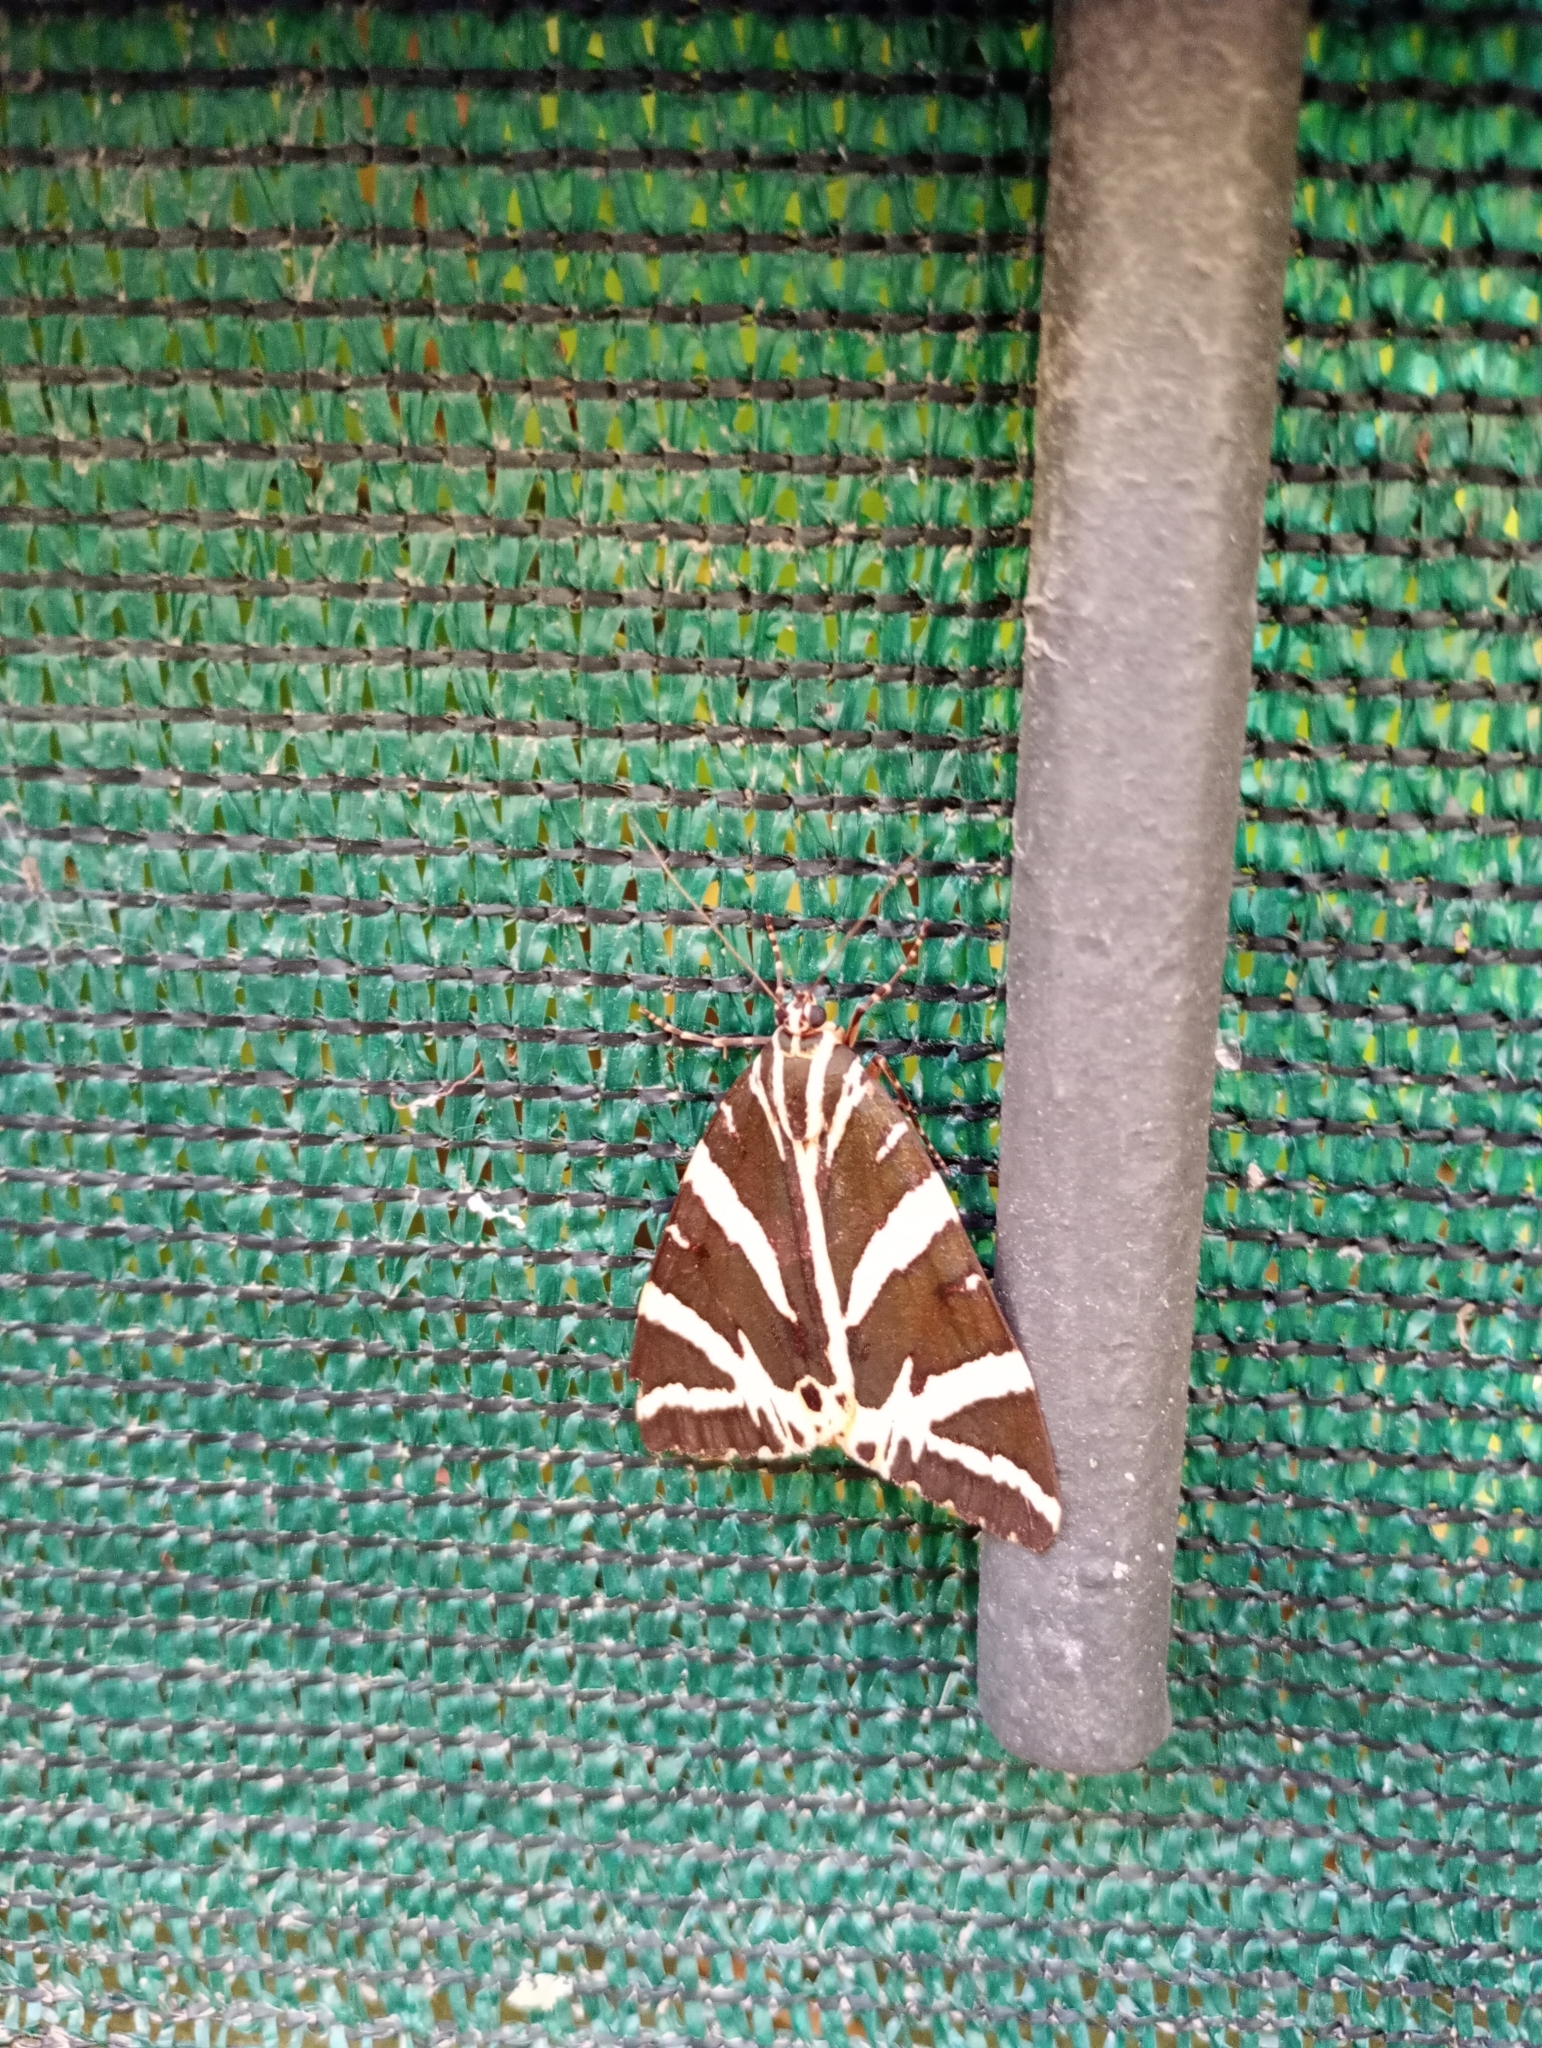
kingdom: Animalia
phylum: Arthropoda
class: Insecta
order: Lepidoptera
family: Erebidae
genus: Euplagia
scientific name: Euplagia quadripunctaria
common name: Jersey tiger
